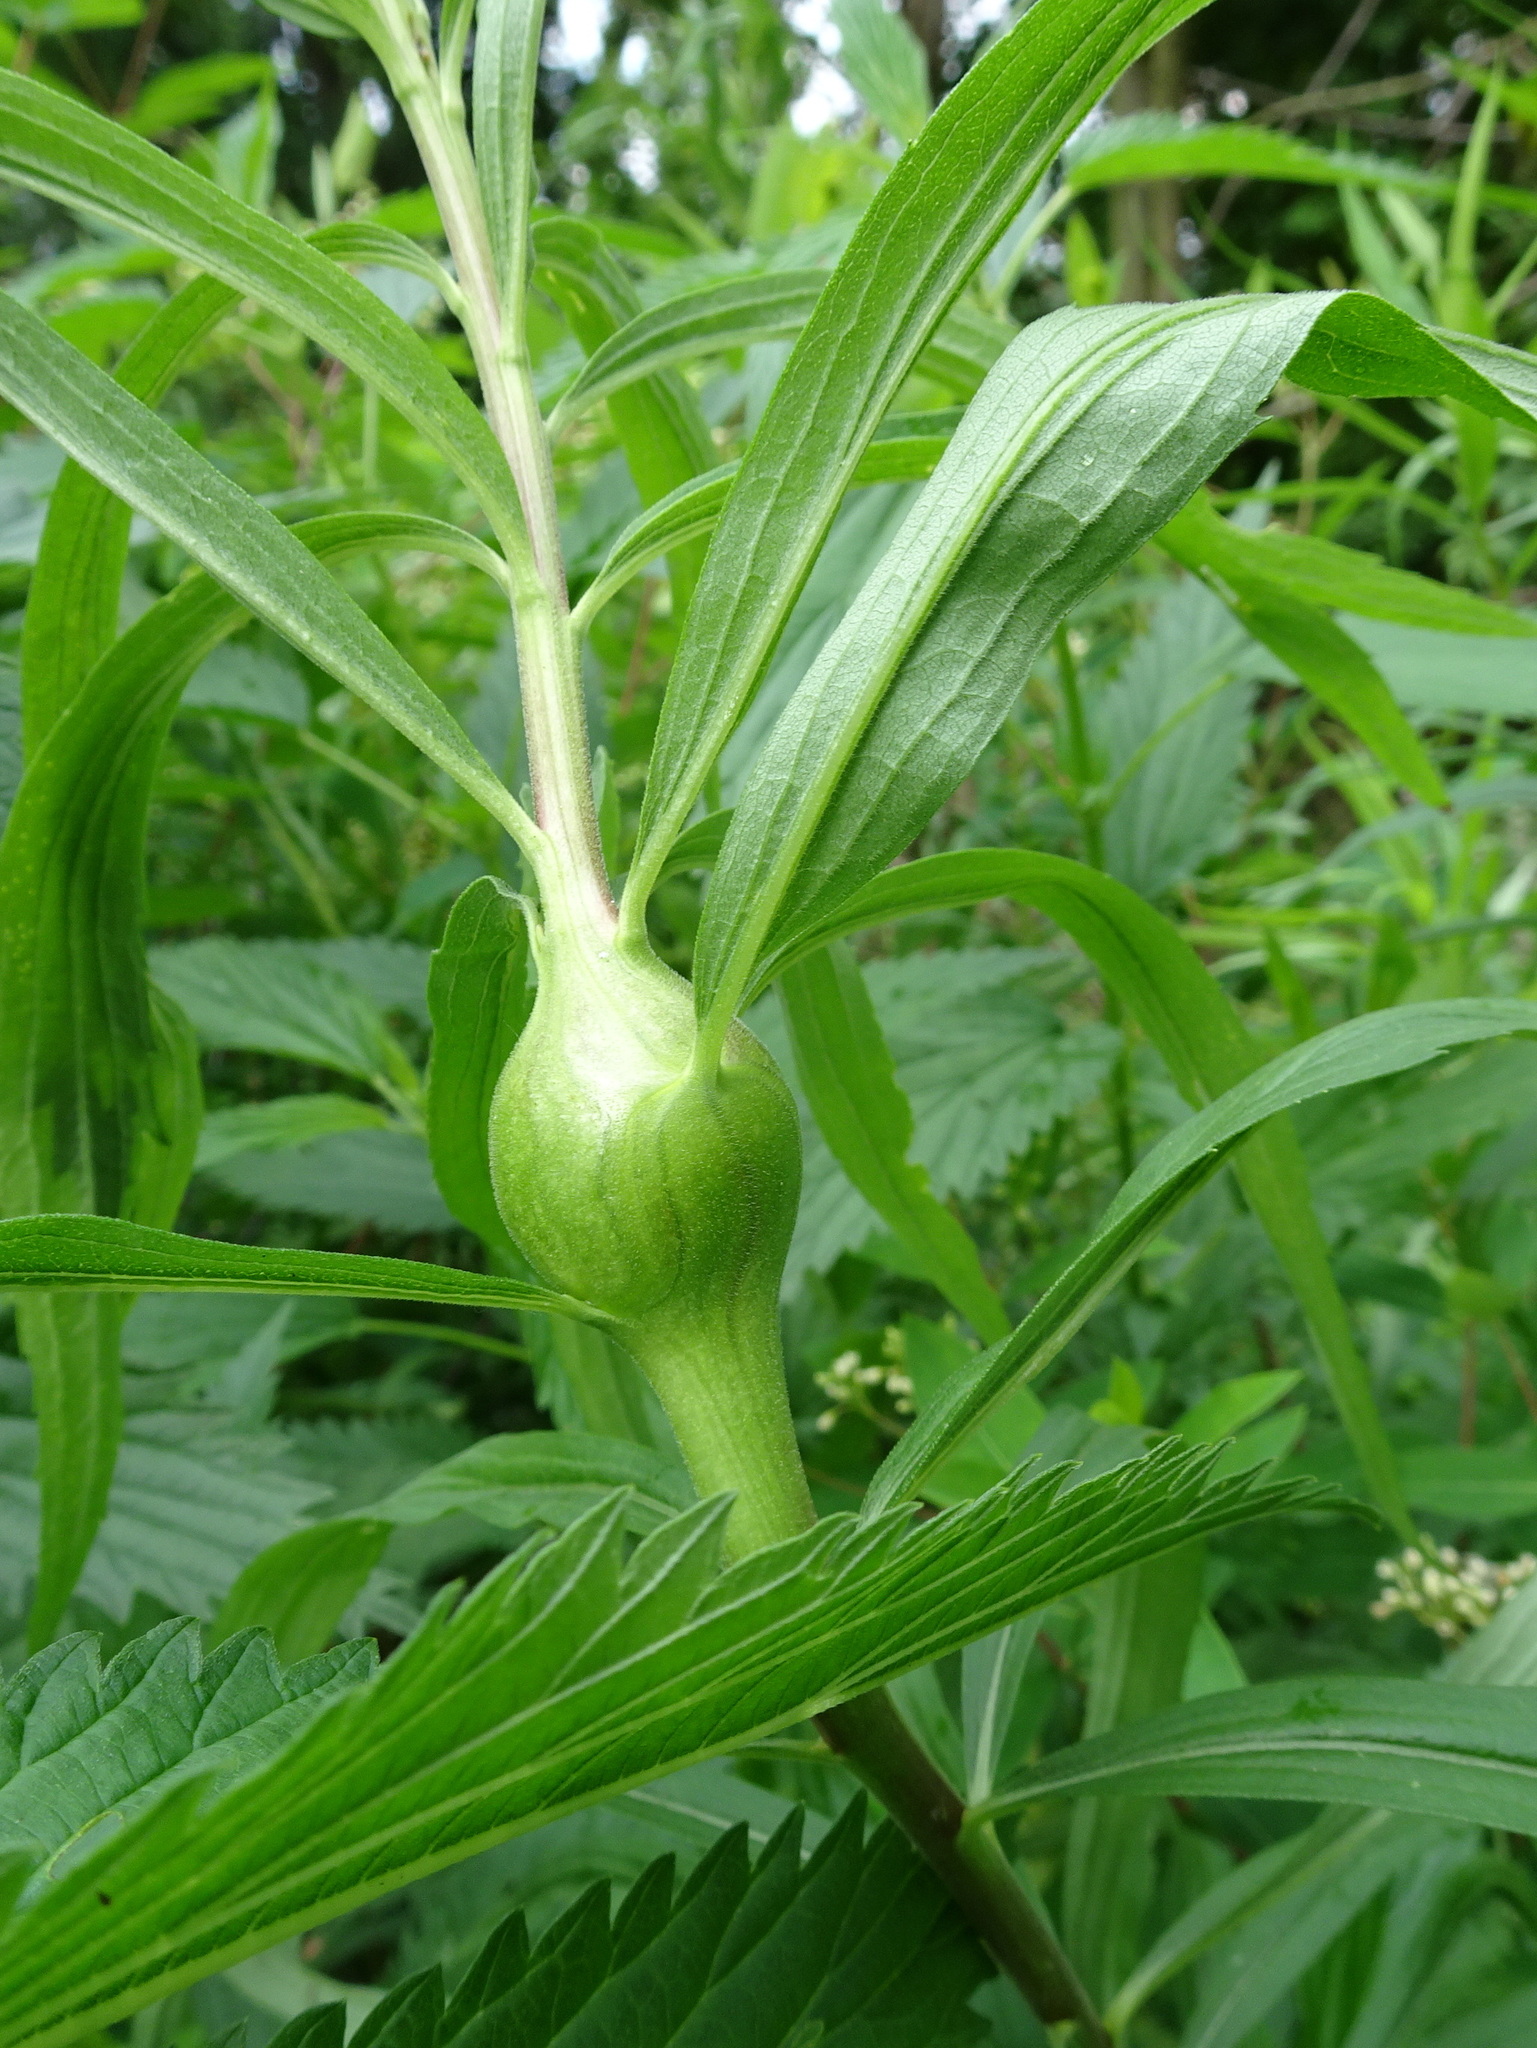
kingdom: Animalia
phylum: Arthropoda
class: Insecta
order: Diptera
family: Tephritidae
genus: Eurosta
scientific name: Eurosta solidaginis
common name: Goldenrod gall fly
